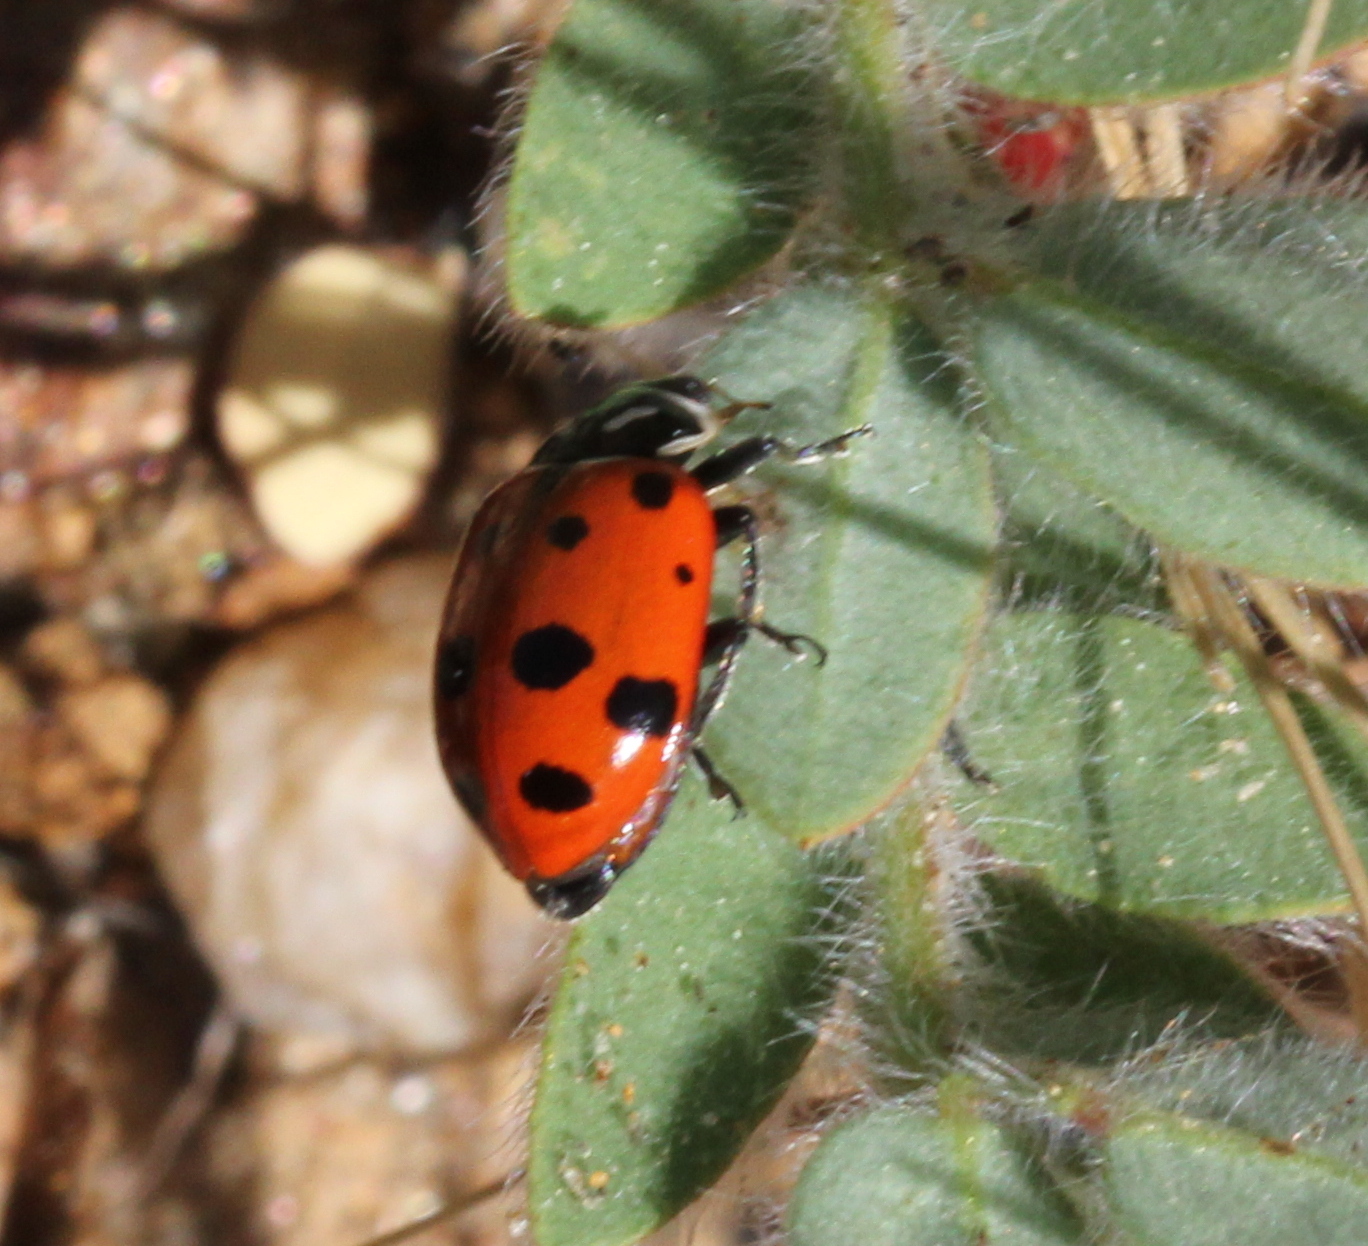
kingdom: Animalia
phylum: Arthropoda
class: Insecta
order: Coleoptera
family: Coccinellidae
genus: Hippodamia
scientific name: Hippodamia convergens
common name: Convergent lady beetle
